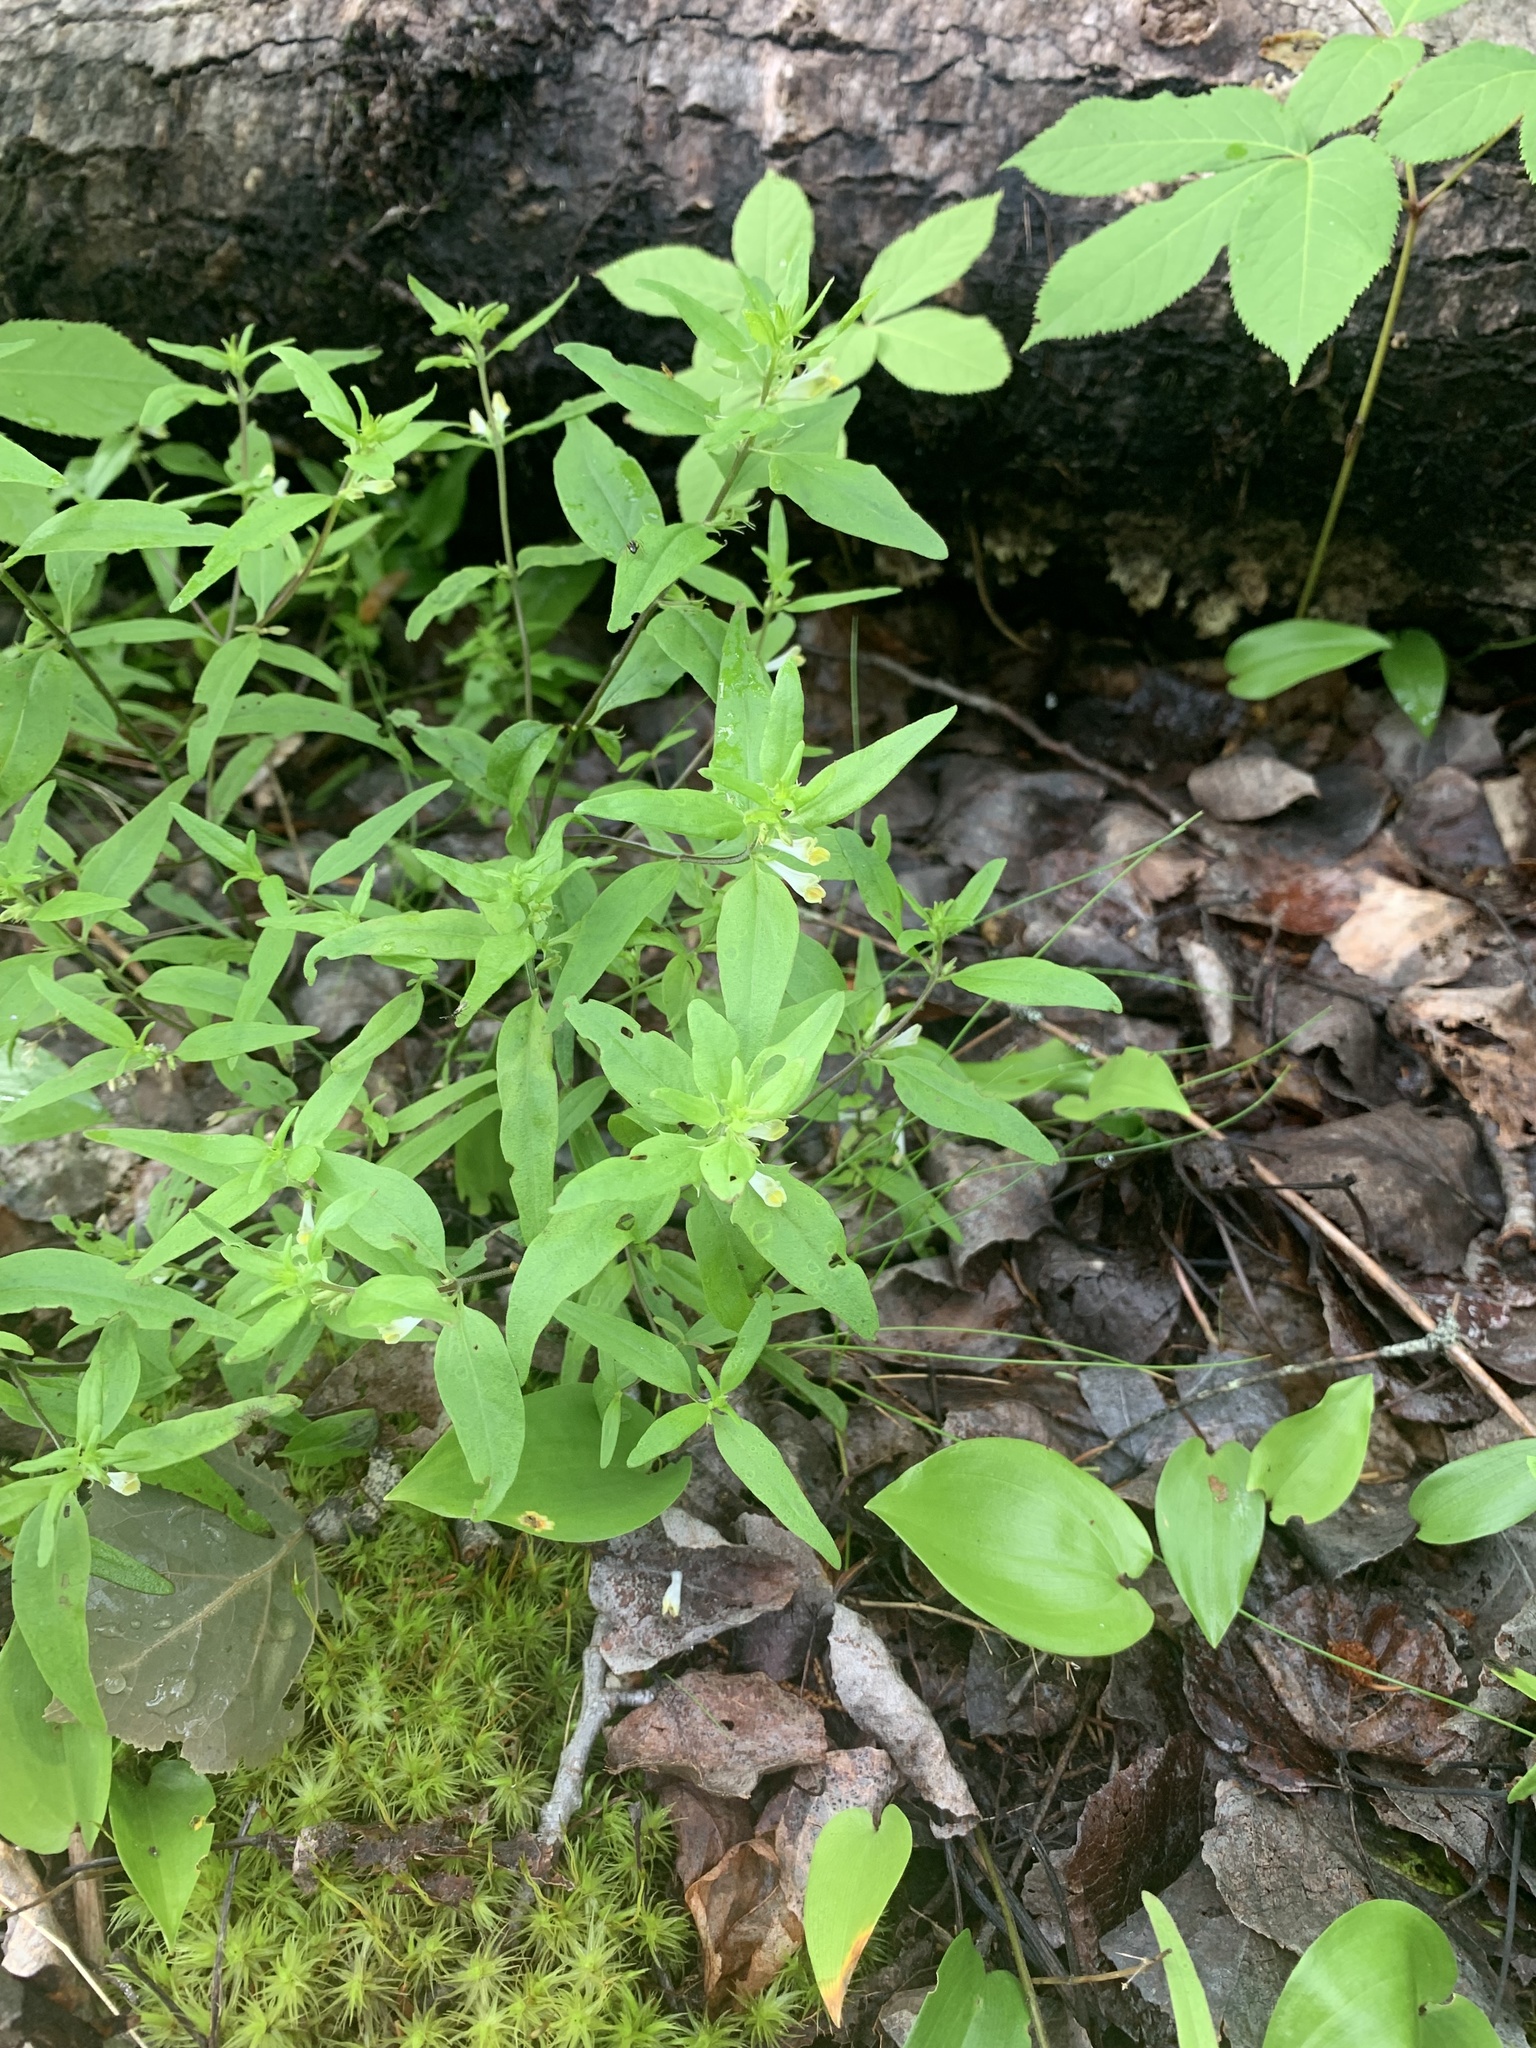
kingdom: Plantae
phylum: Tracheophyta
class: Magnoliopsida
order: Lamiales
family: Orobanchaceae
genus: Melampyrum
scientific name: Melampyrum lineare
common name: American cow-wheat
